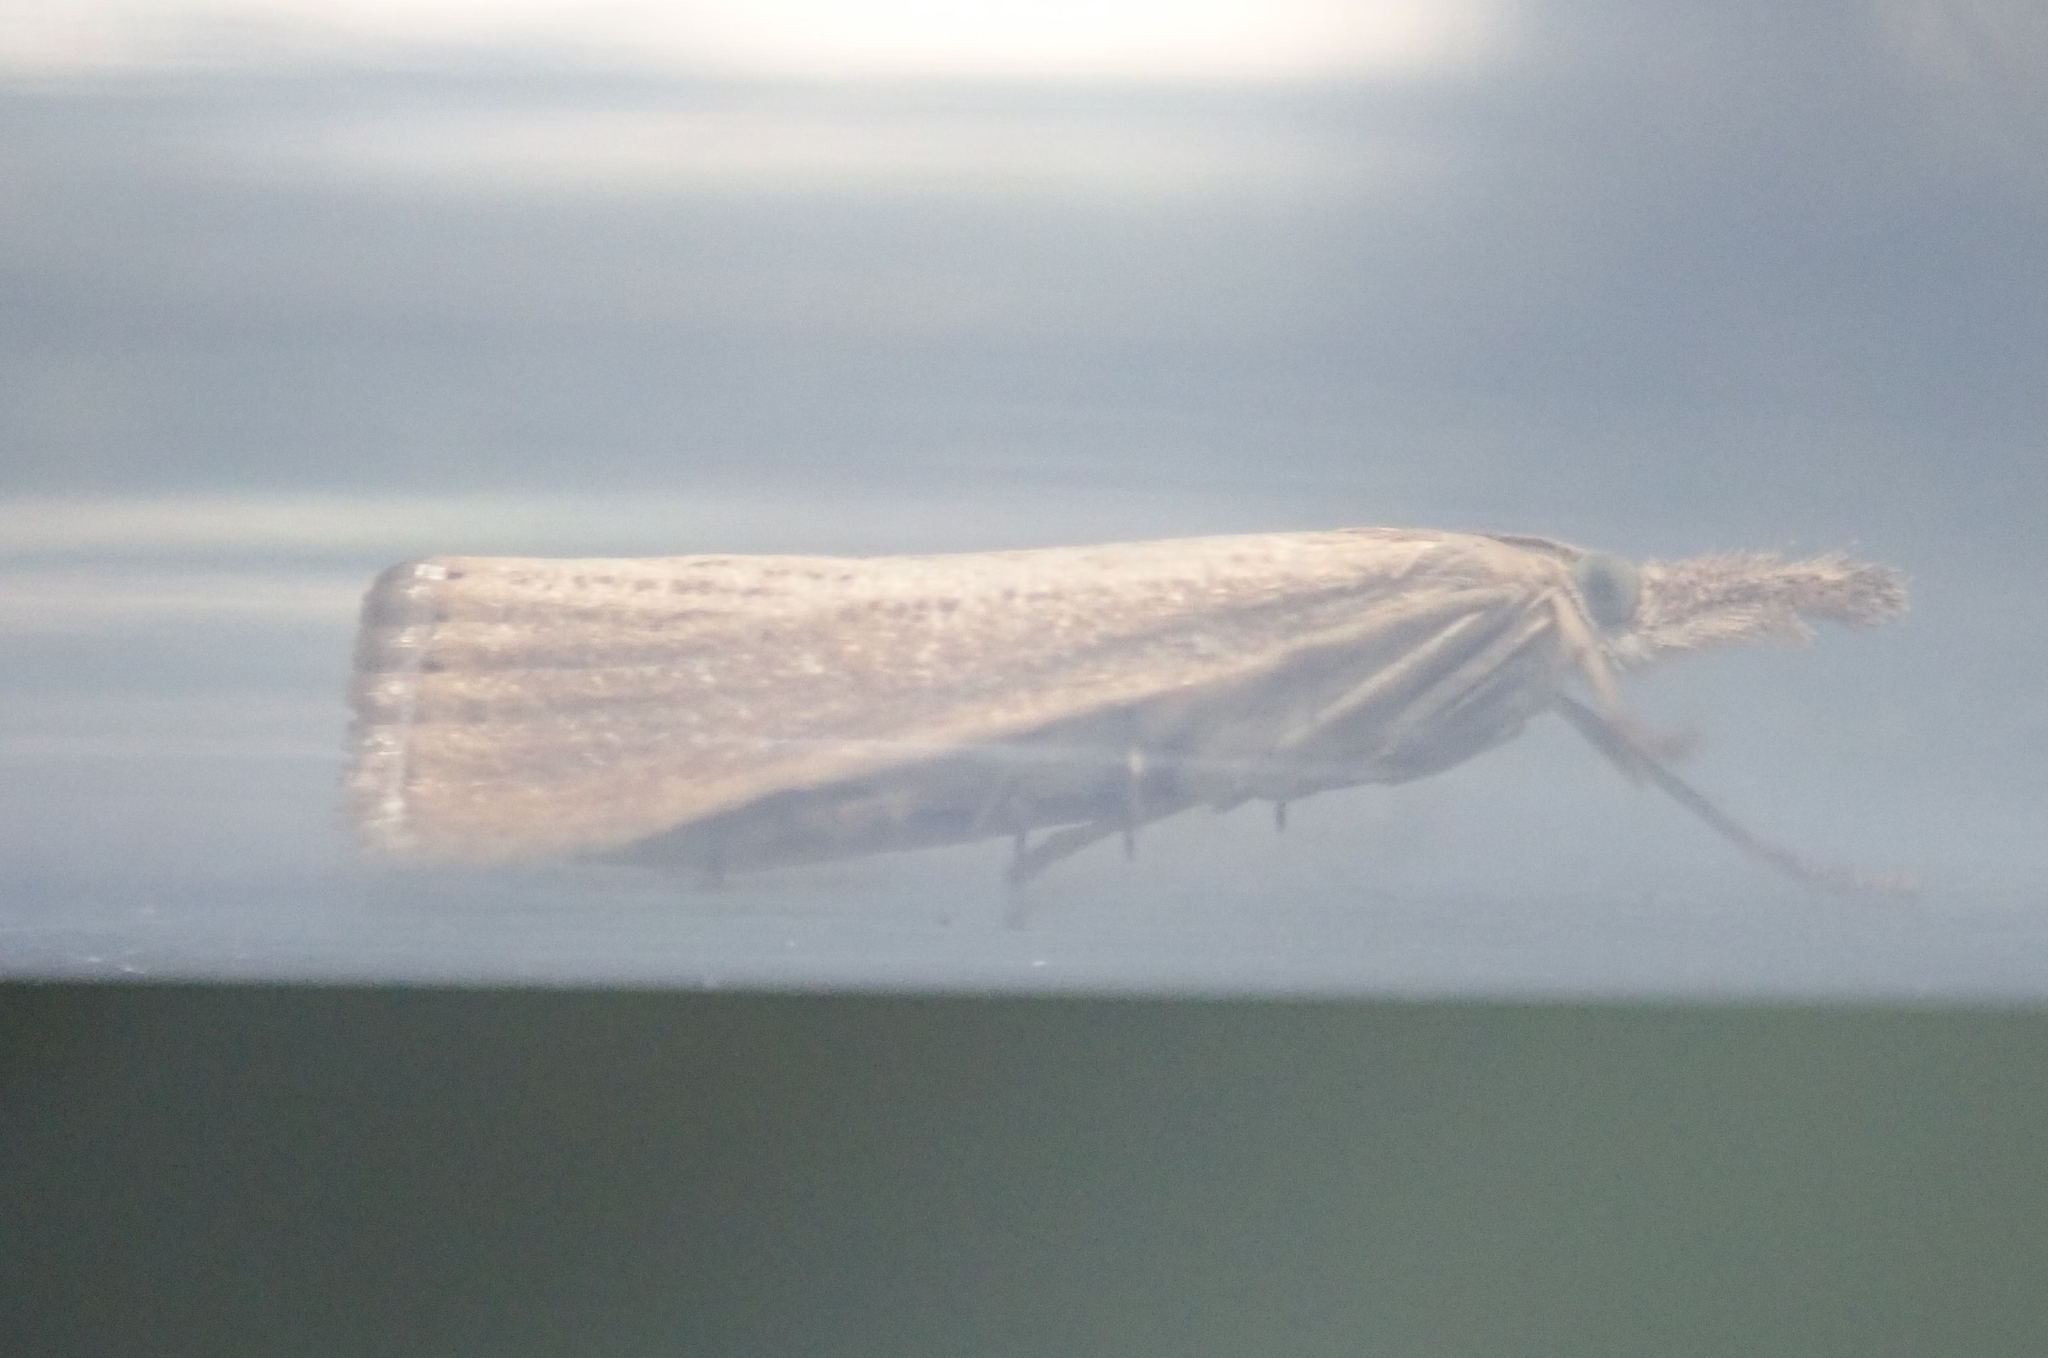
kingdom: Animalia
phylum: Arthropoda
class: Insecta
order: Lepidoptera
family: Crambidae
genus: Agriphila
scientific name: Agriphila straminella
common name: Straw grass-veneer
